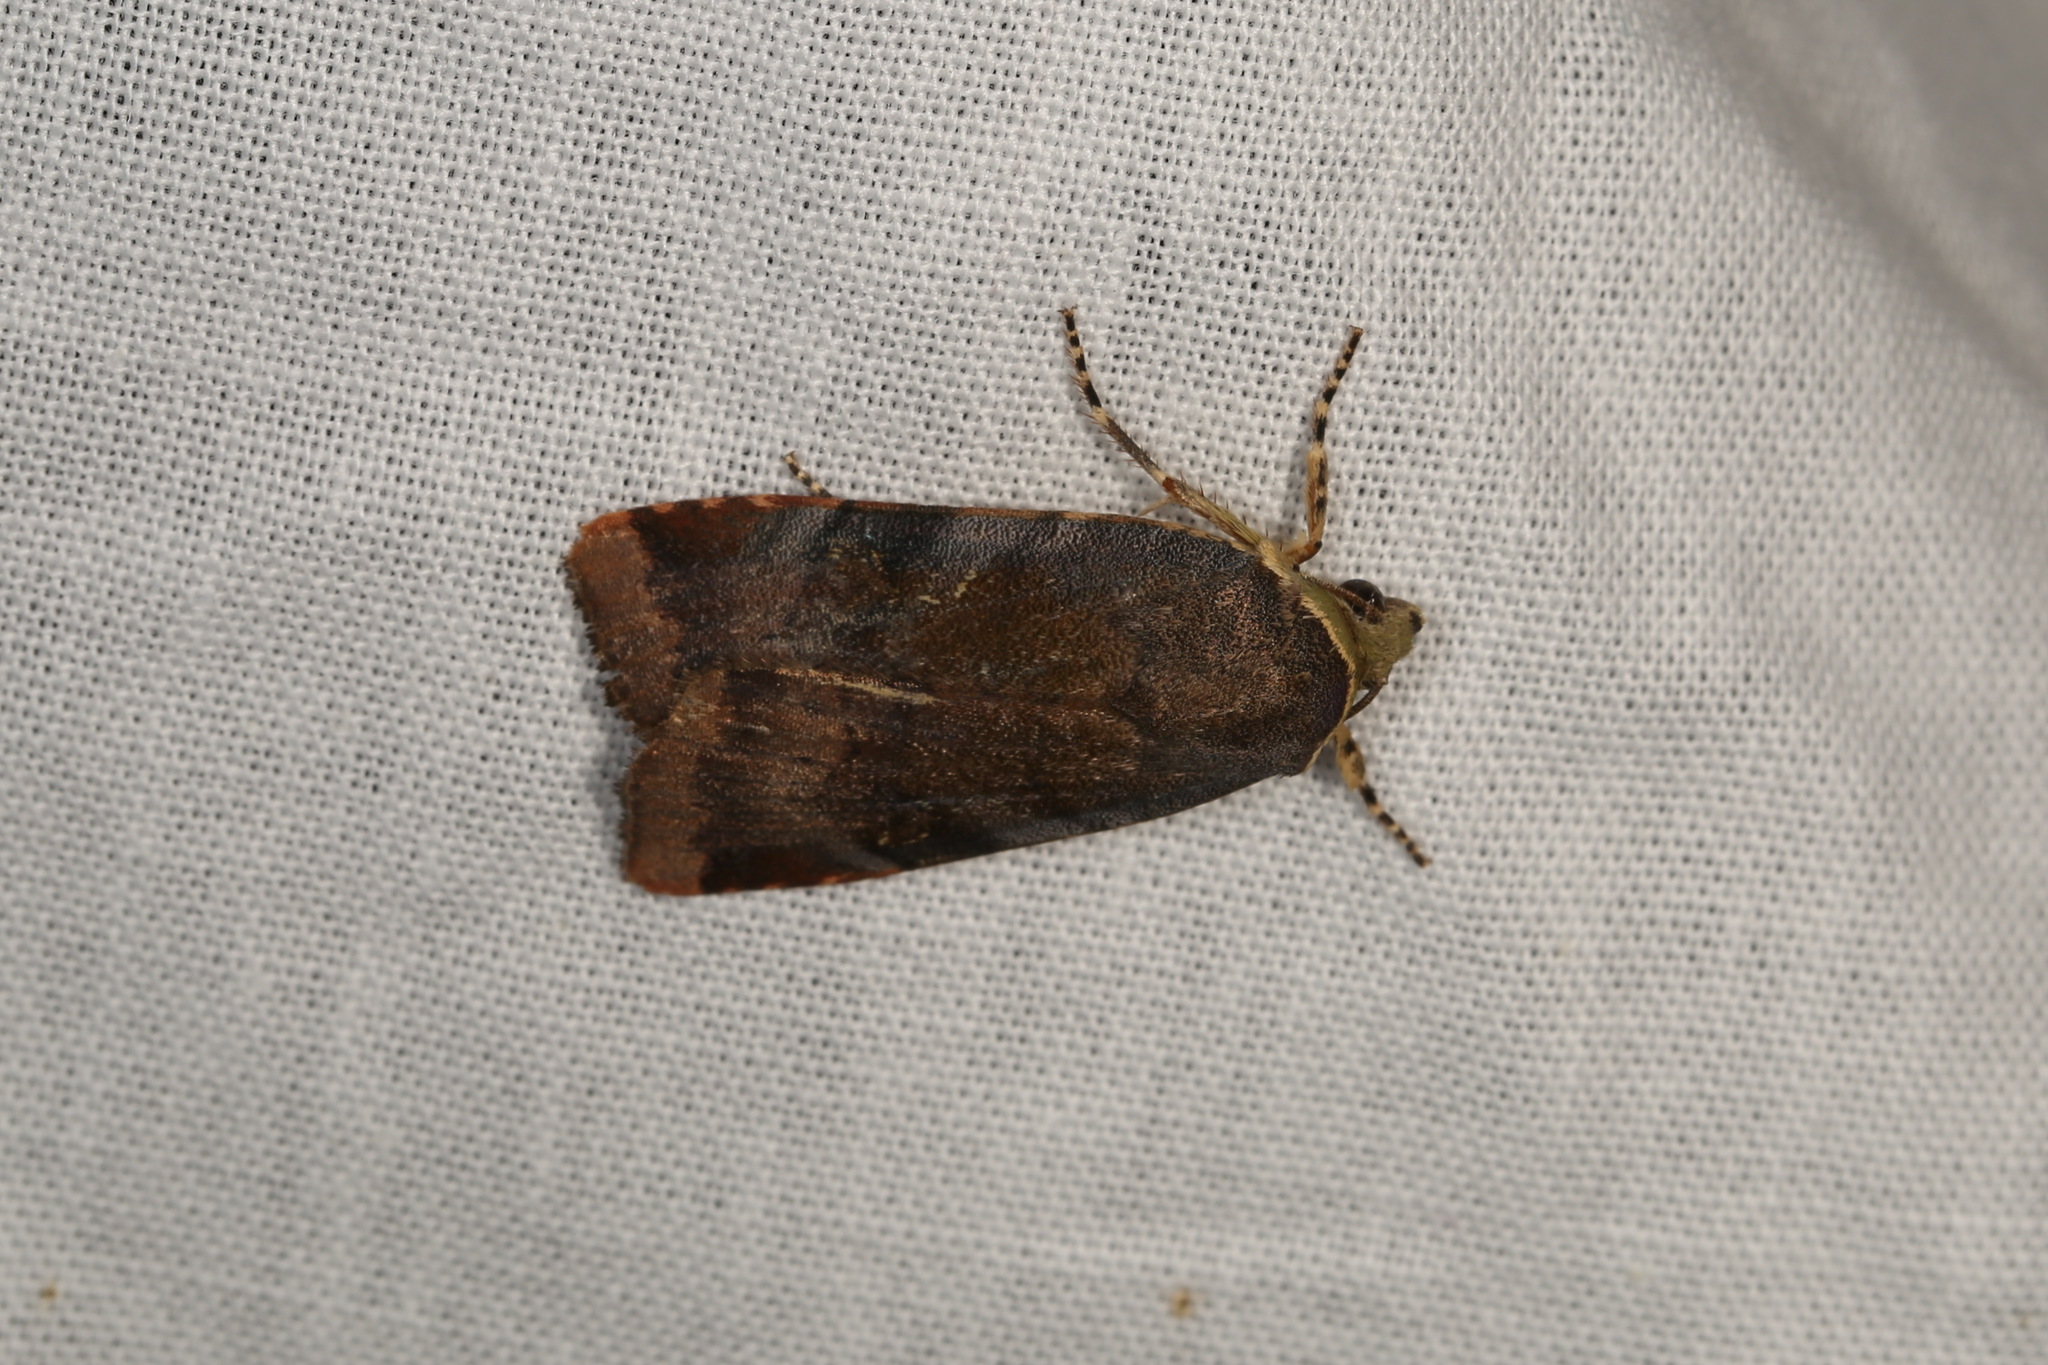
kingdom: Animalia
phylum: Arthropoda
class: Insecta
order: Lepidoptera
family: Noctuidae
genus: Noctua
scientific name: Noctua
